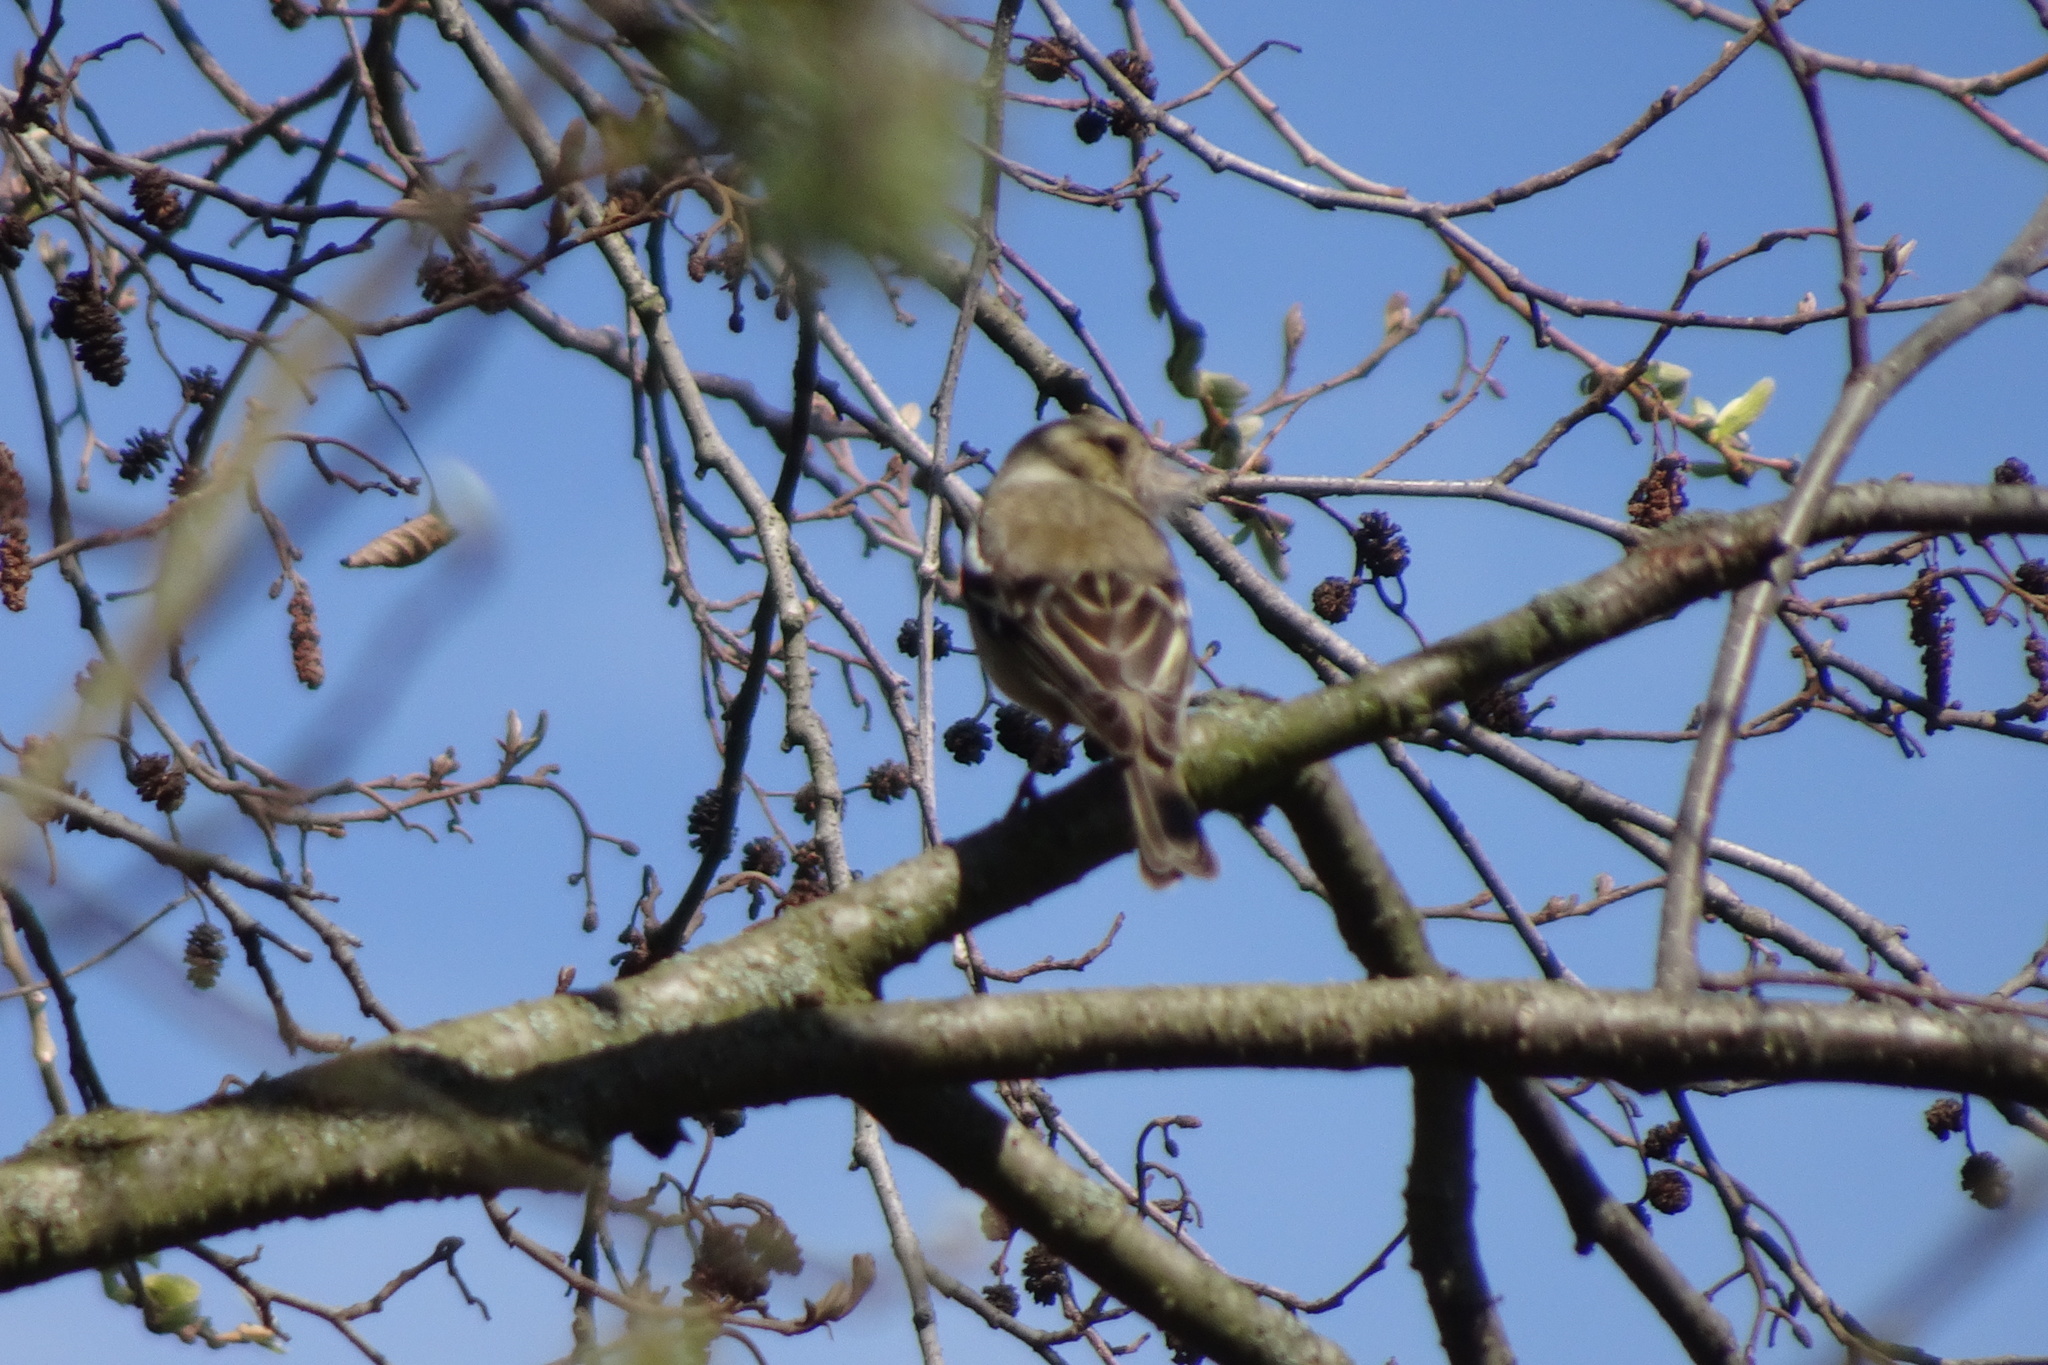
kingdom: Animalia
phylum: Chordata
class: Aves
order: Passeriformes
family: Fringillidae
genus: Fringilla
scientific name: Fringilla coelebs
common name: Common chaffinch
